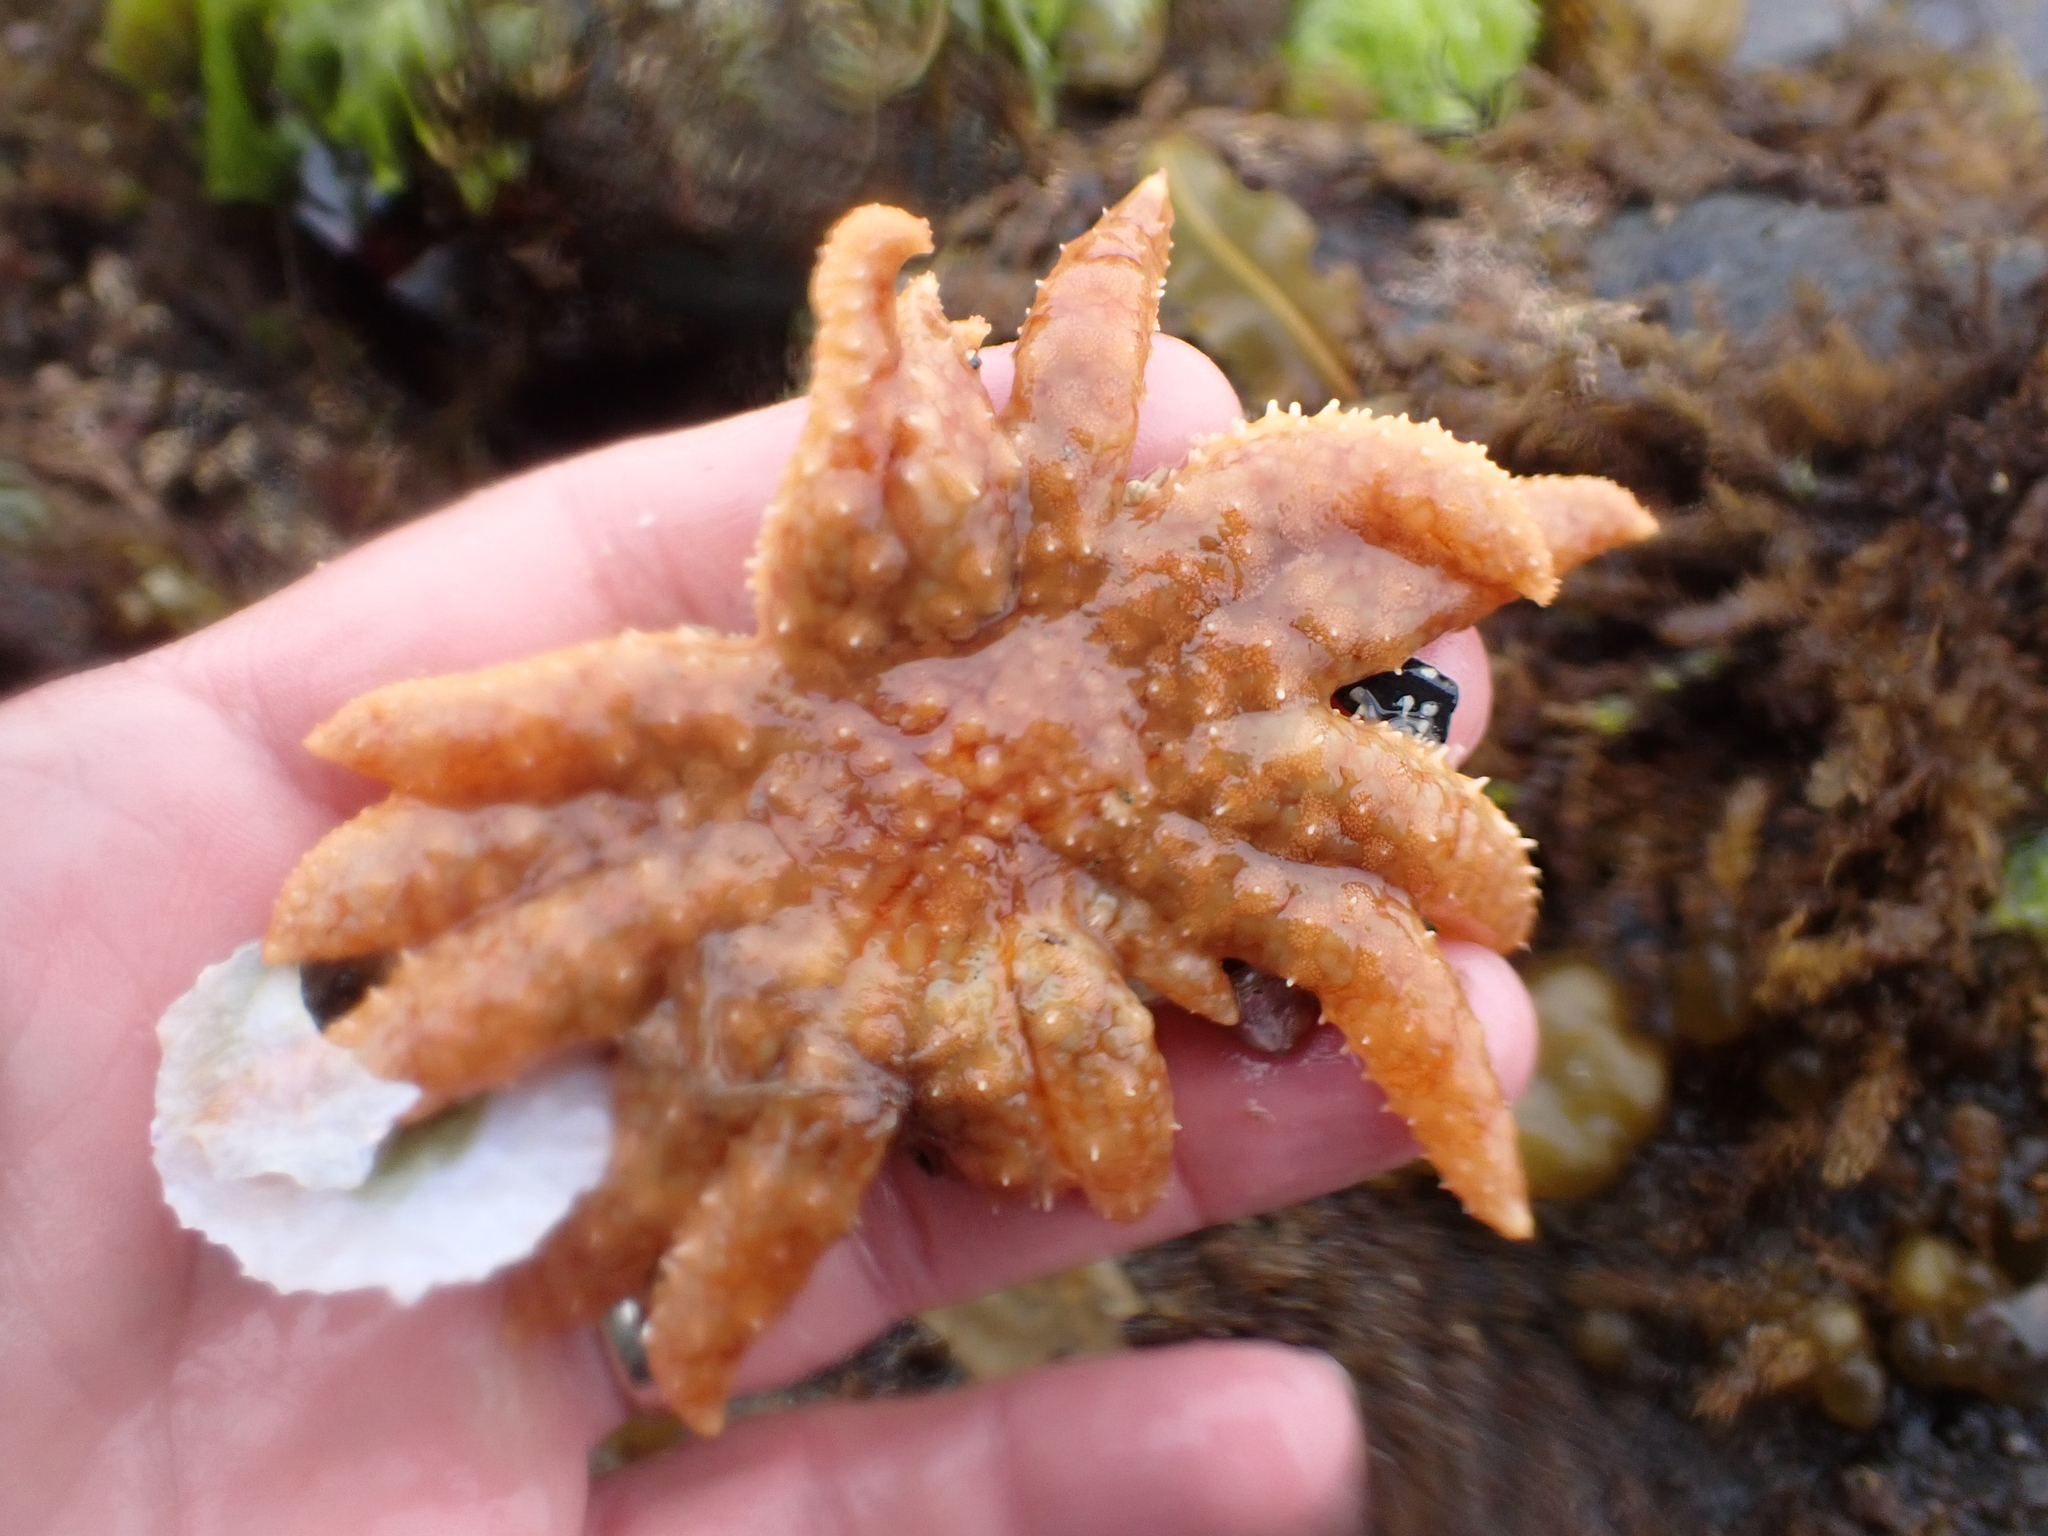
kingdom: Animalia
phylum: Echinodermata
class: Asteroidea
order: Forcipulatida
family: Asteriidae
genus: Pycnopodia
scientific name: Pycnopodia helianthoides
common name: Rag mop
